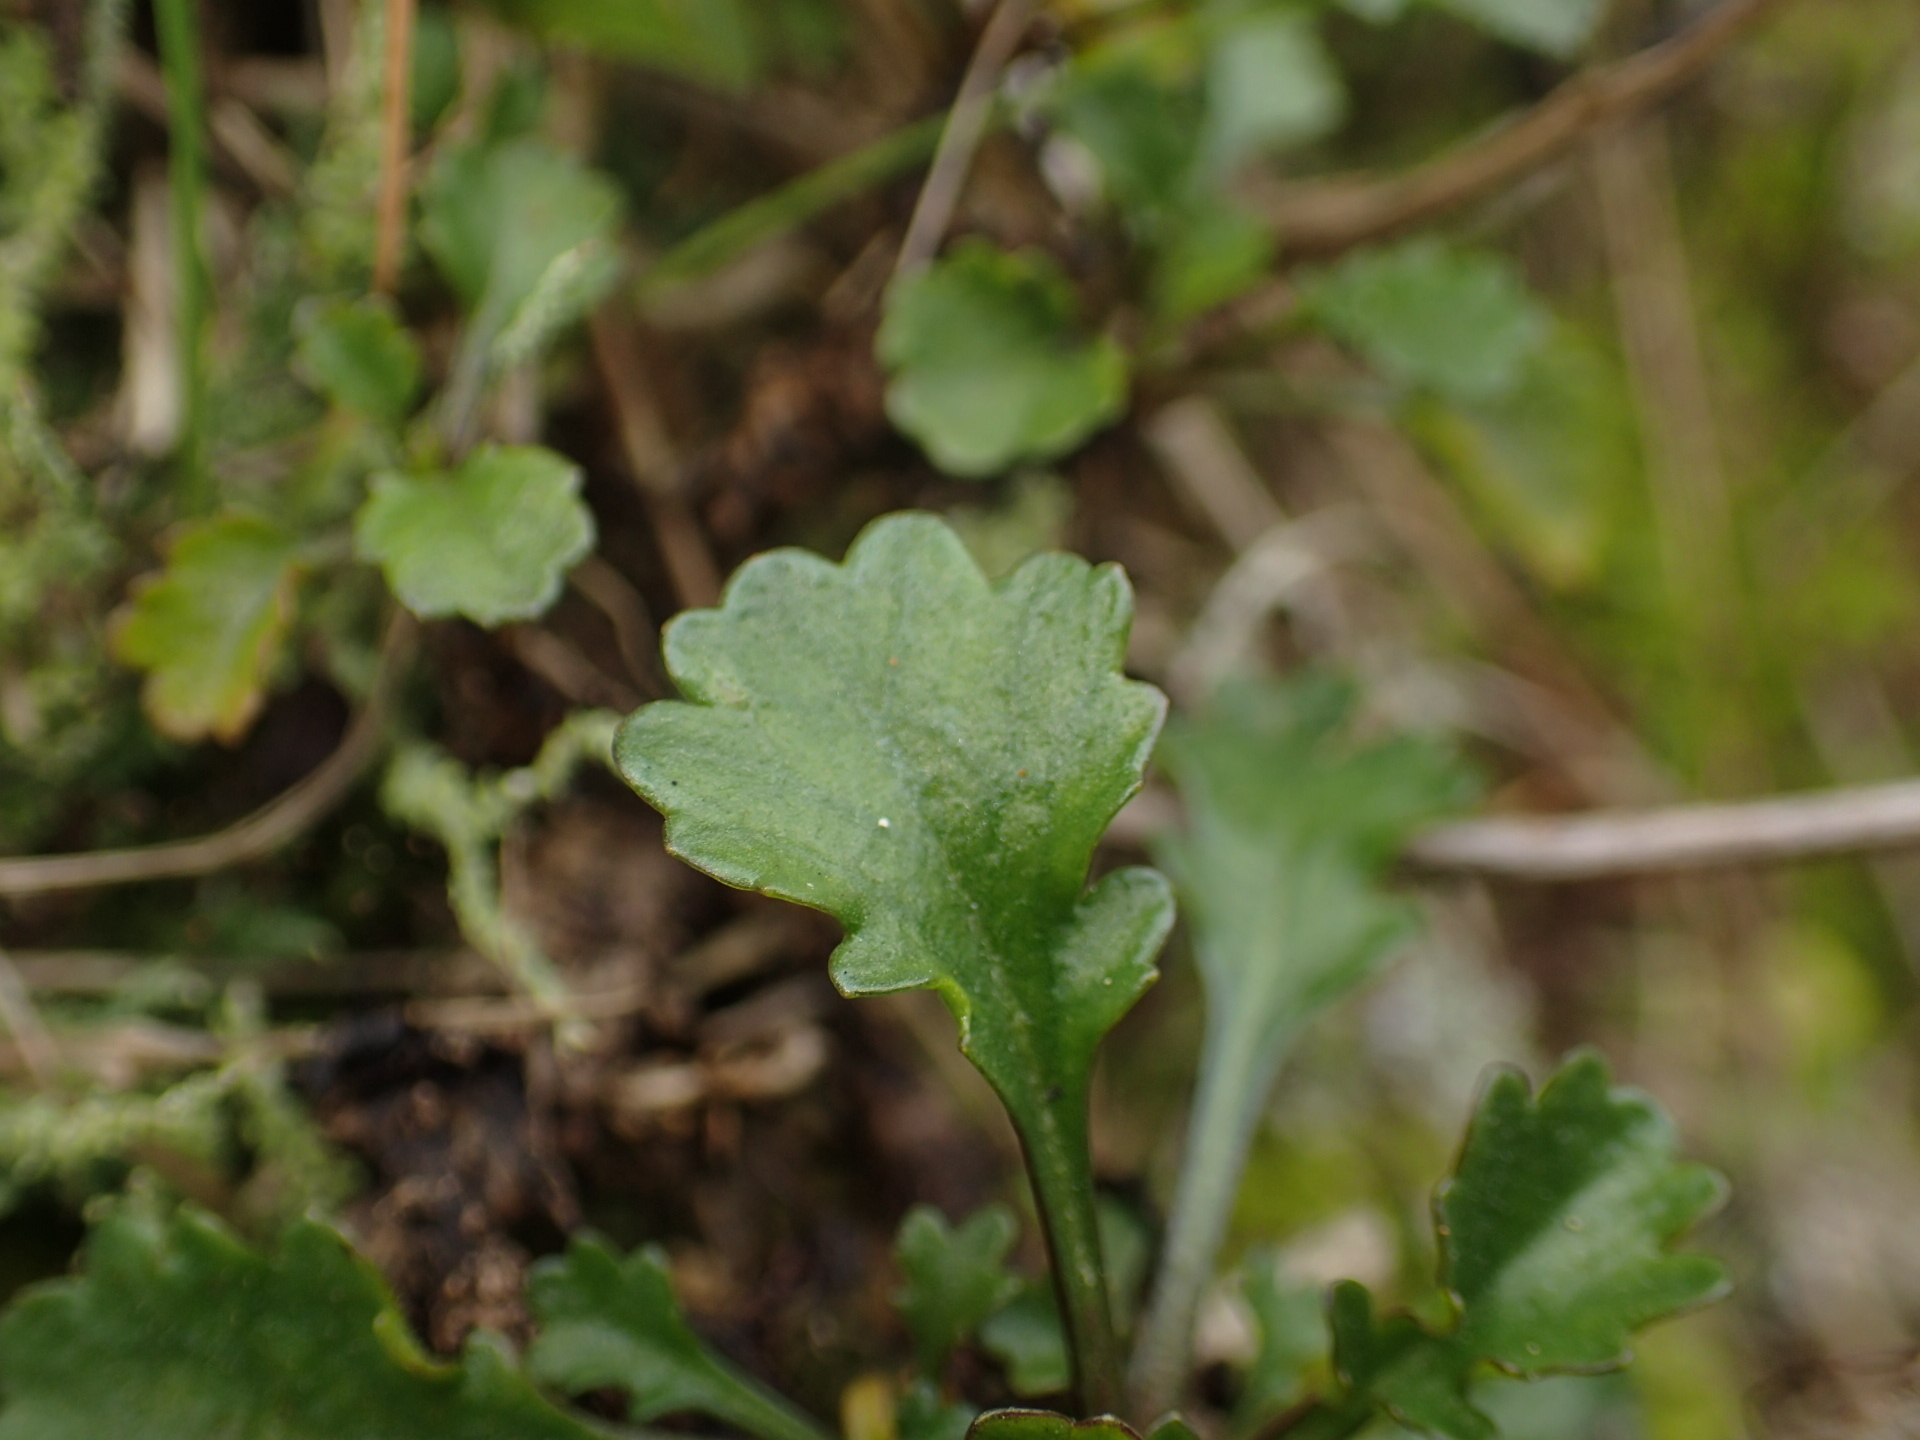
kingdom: Plantae
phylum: Tracheophyta
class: Magnoliopsida
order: Asterales
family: Asteraceae
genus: Leucanthemum
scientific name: Leucanthemum vulgare
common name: Oxeye daisy
